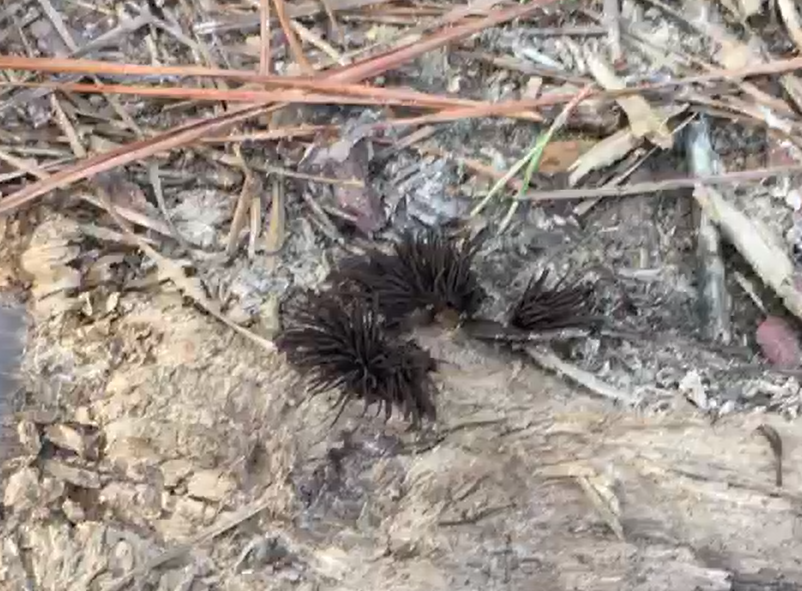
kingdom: Protozoa
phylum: Mycetozoa
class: Myxomycetes
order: Stemonitidales
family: Stemonitidaceae
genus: Stemonitis
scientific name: Stemonitis splendens
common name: Chocolate tube slime
